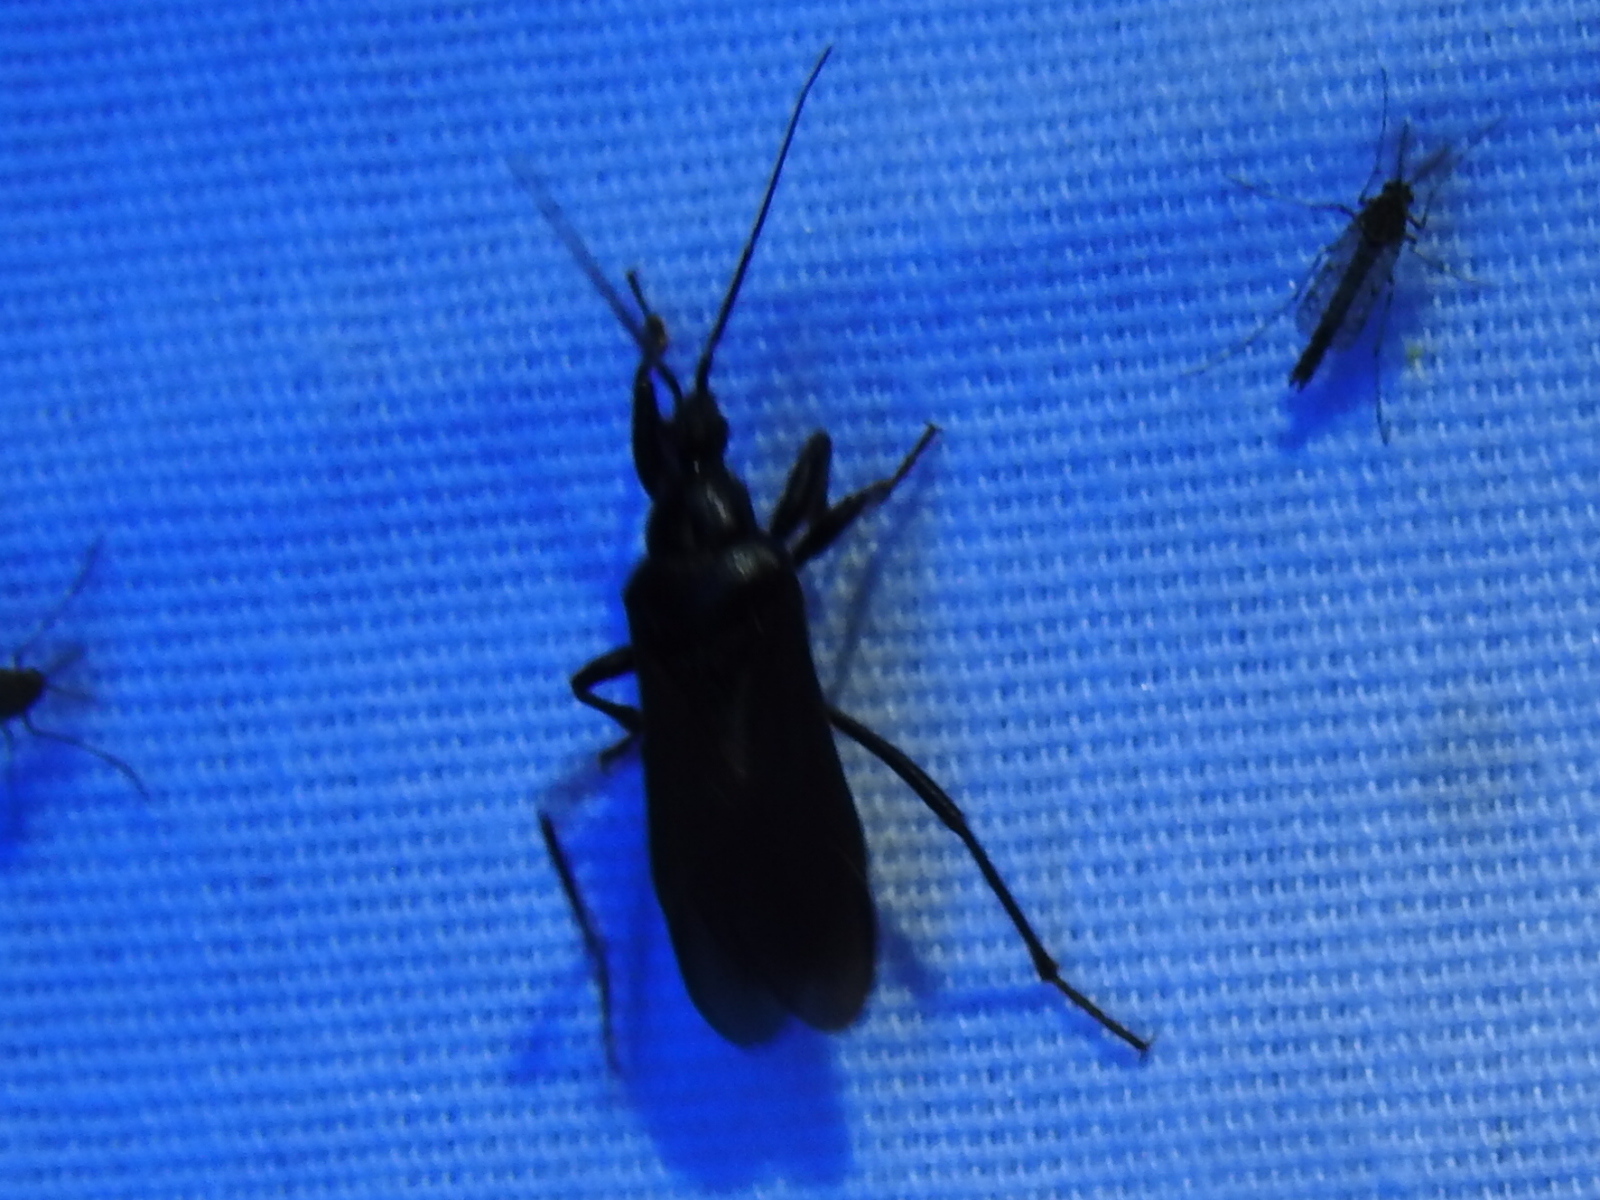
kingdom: Animalia
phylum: Arthropoda
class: Insecta
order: Hemiptera
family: Reduviidae
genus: Melanolestes
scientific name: Melanolestes picipes
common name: Assassin bug
